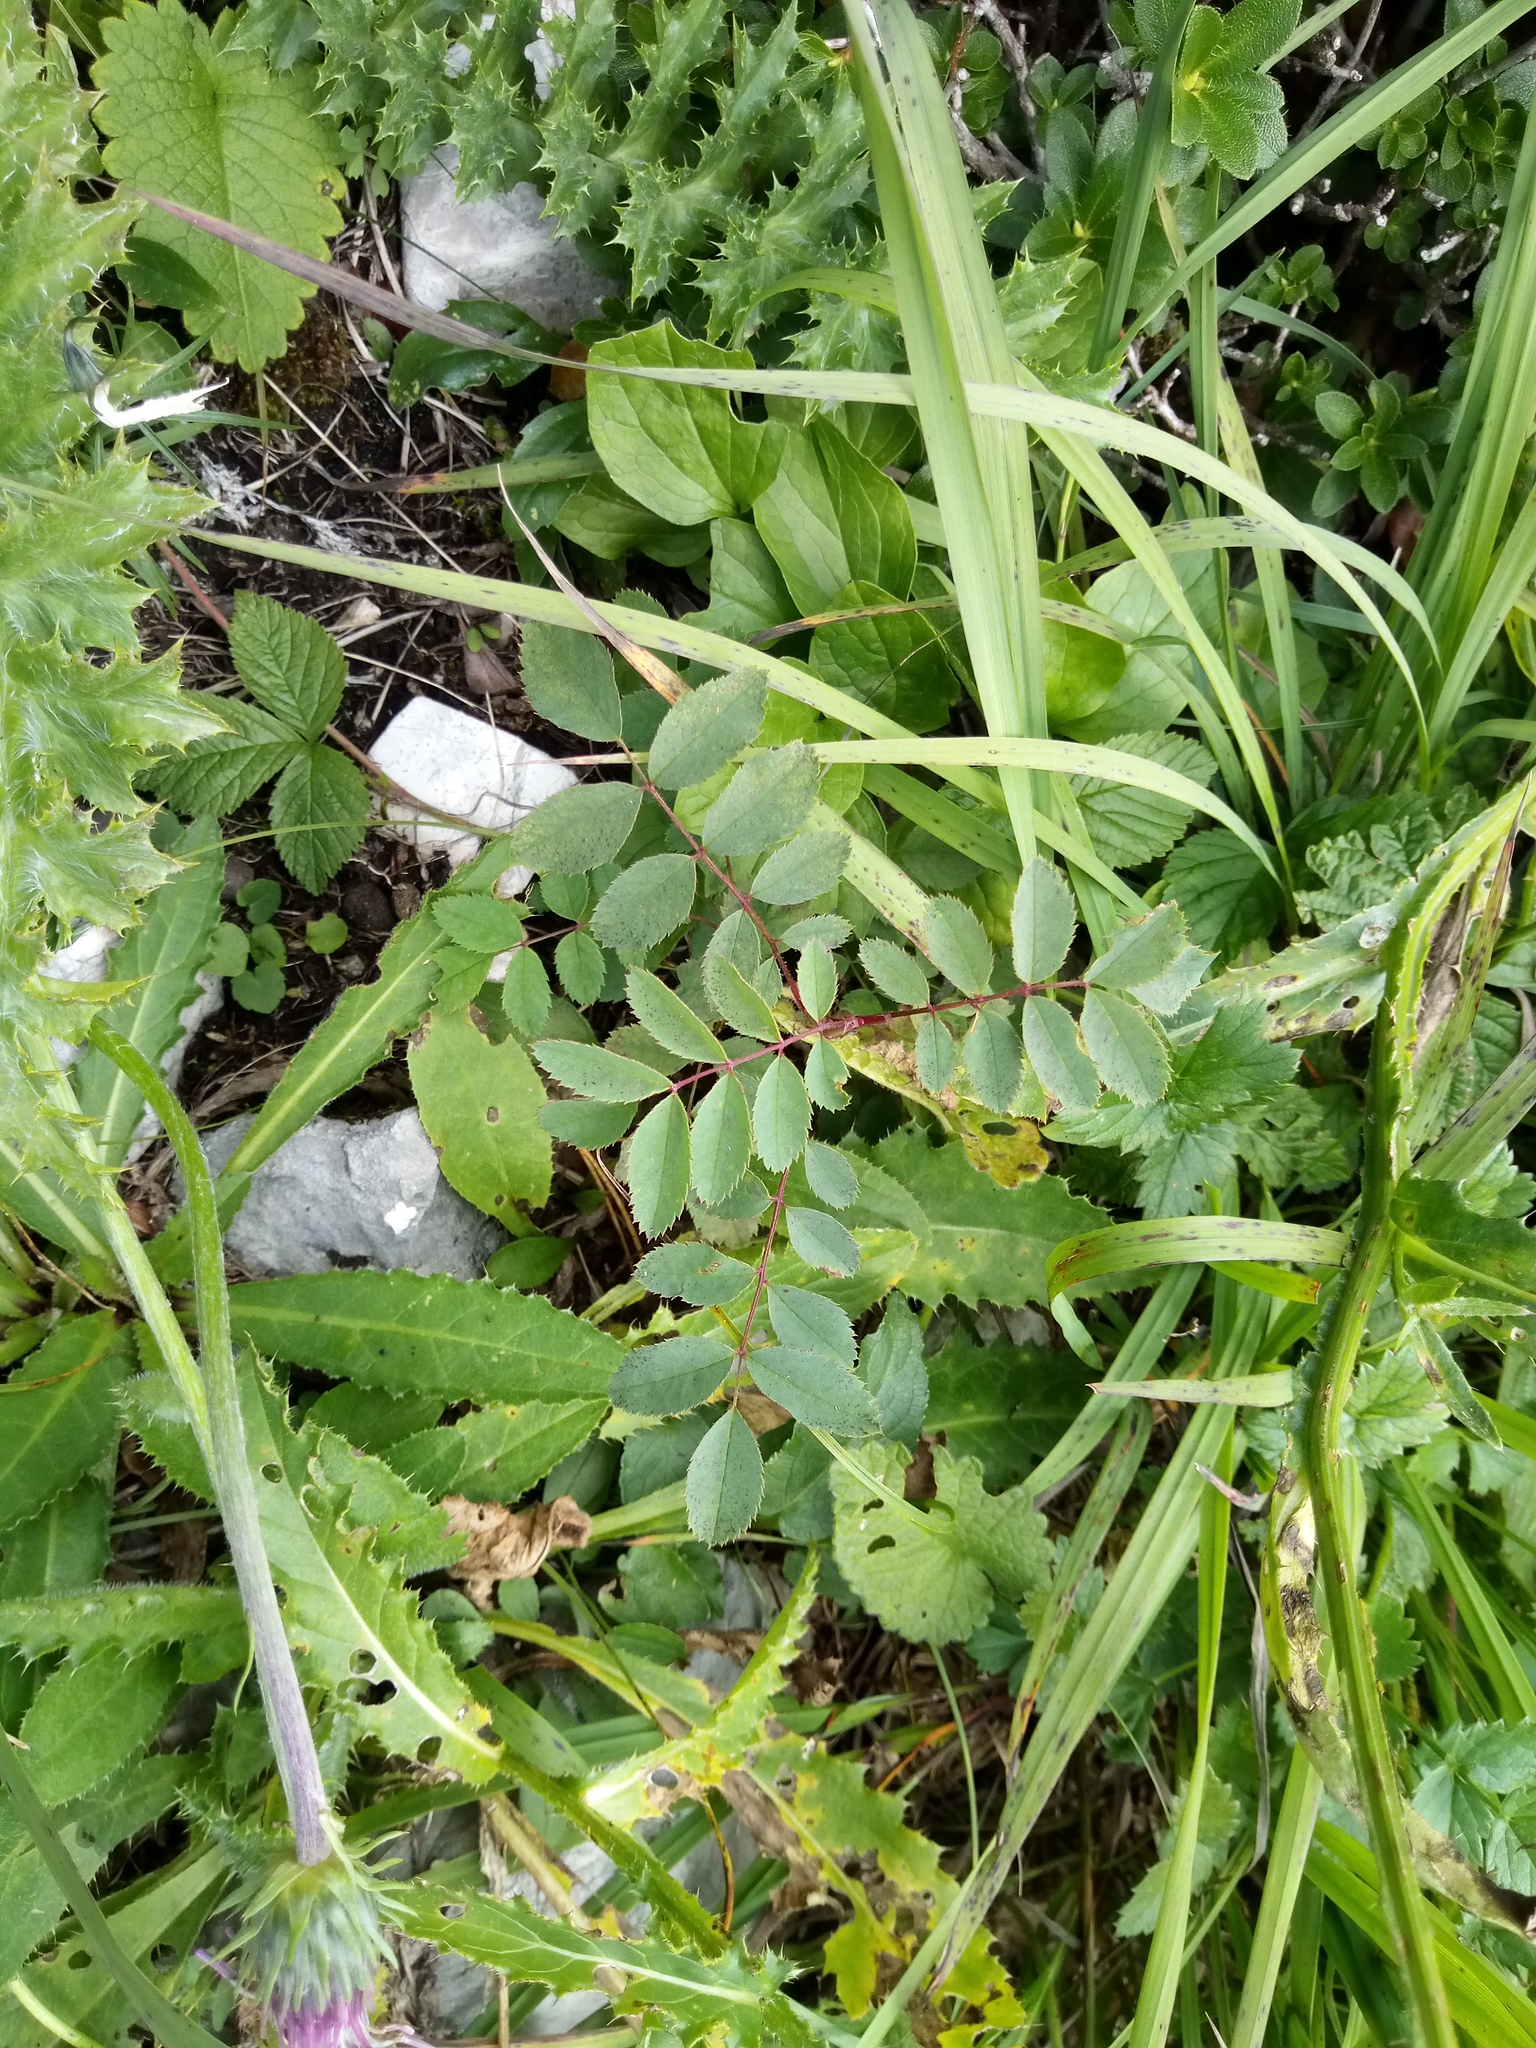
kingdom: Plantae
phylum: Tracheophyta
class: Magnoliopsida
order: Rosales
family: Rosaceae
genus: Rosa
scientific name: Rosa pendulina
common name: Alpine rose
